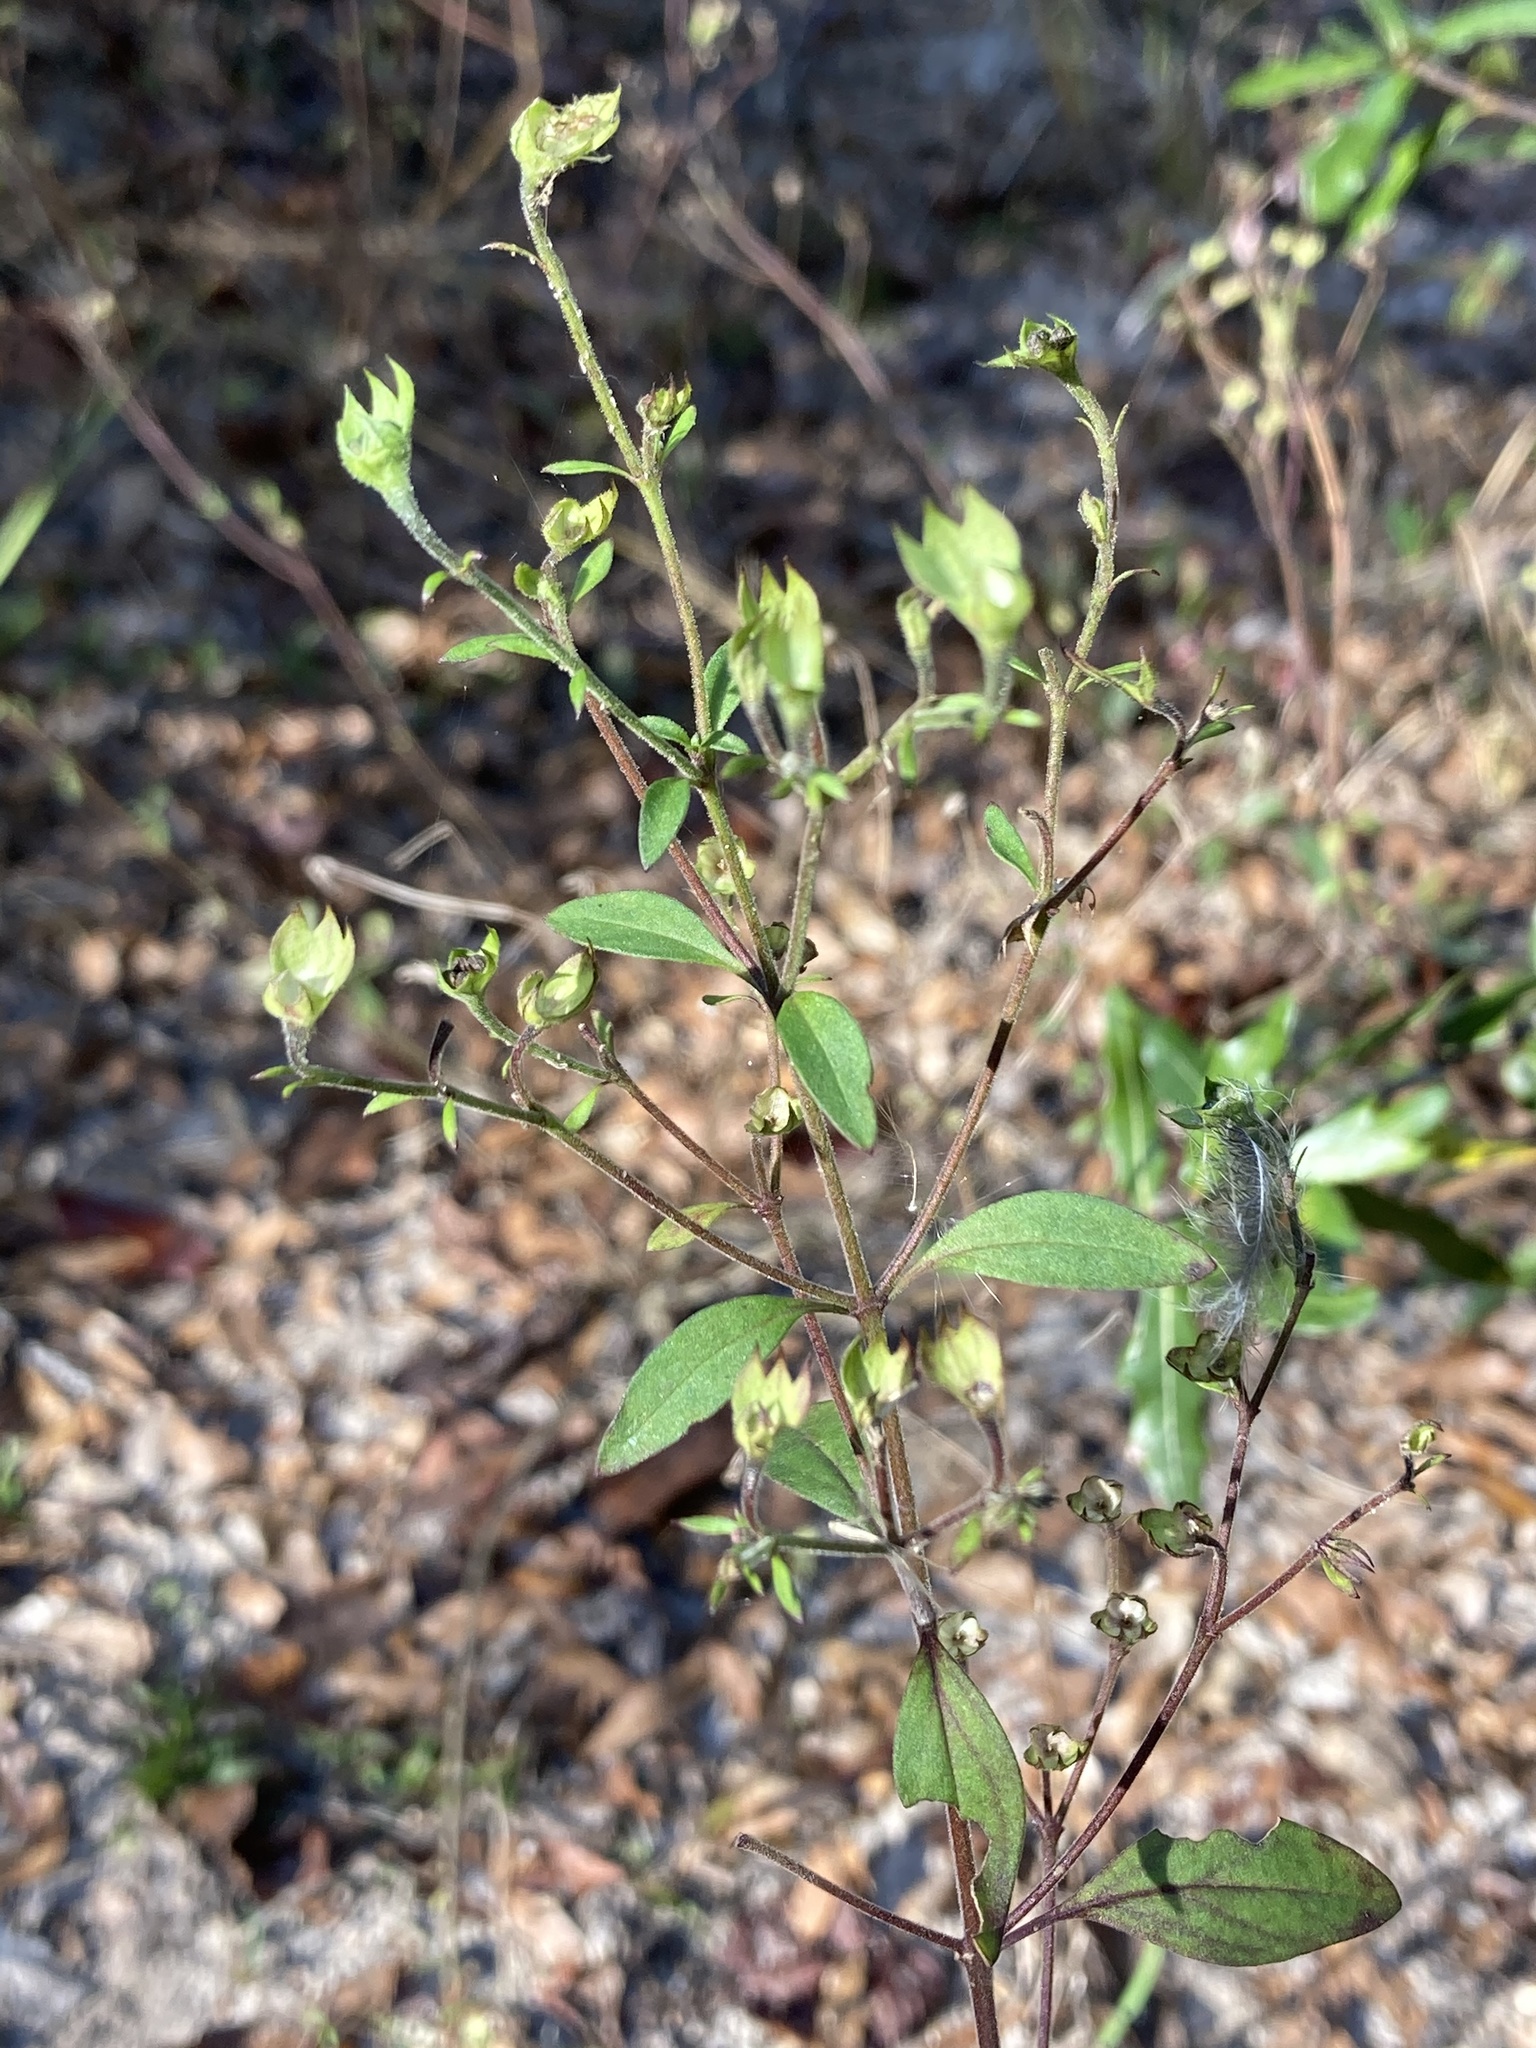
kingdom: Plantae
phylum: Tracheophyta
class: Magnoliopsida
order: Lamiales
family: Lamiaceae
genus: Trichostema
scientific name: Trichostema fruticosum
